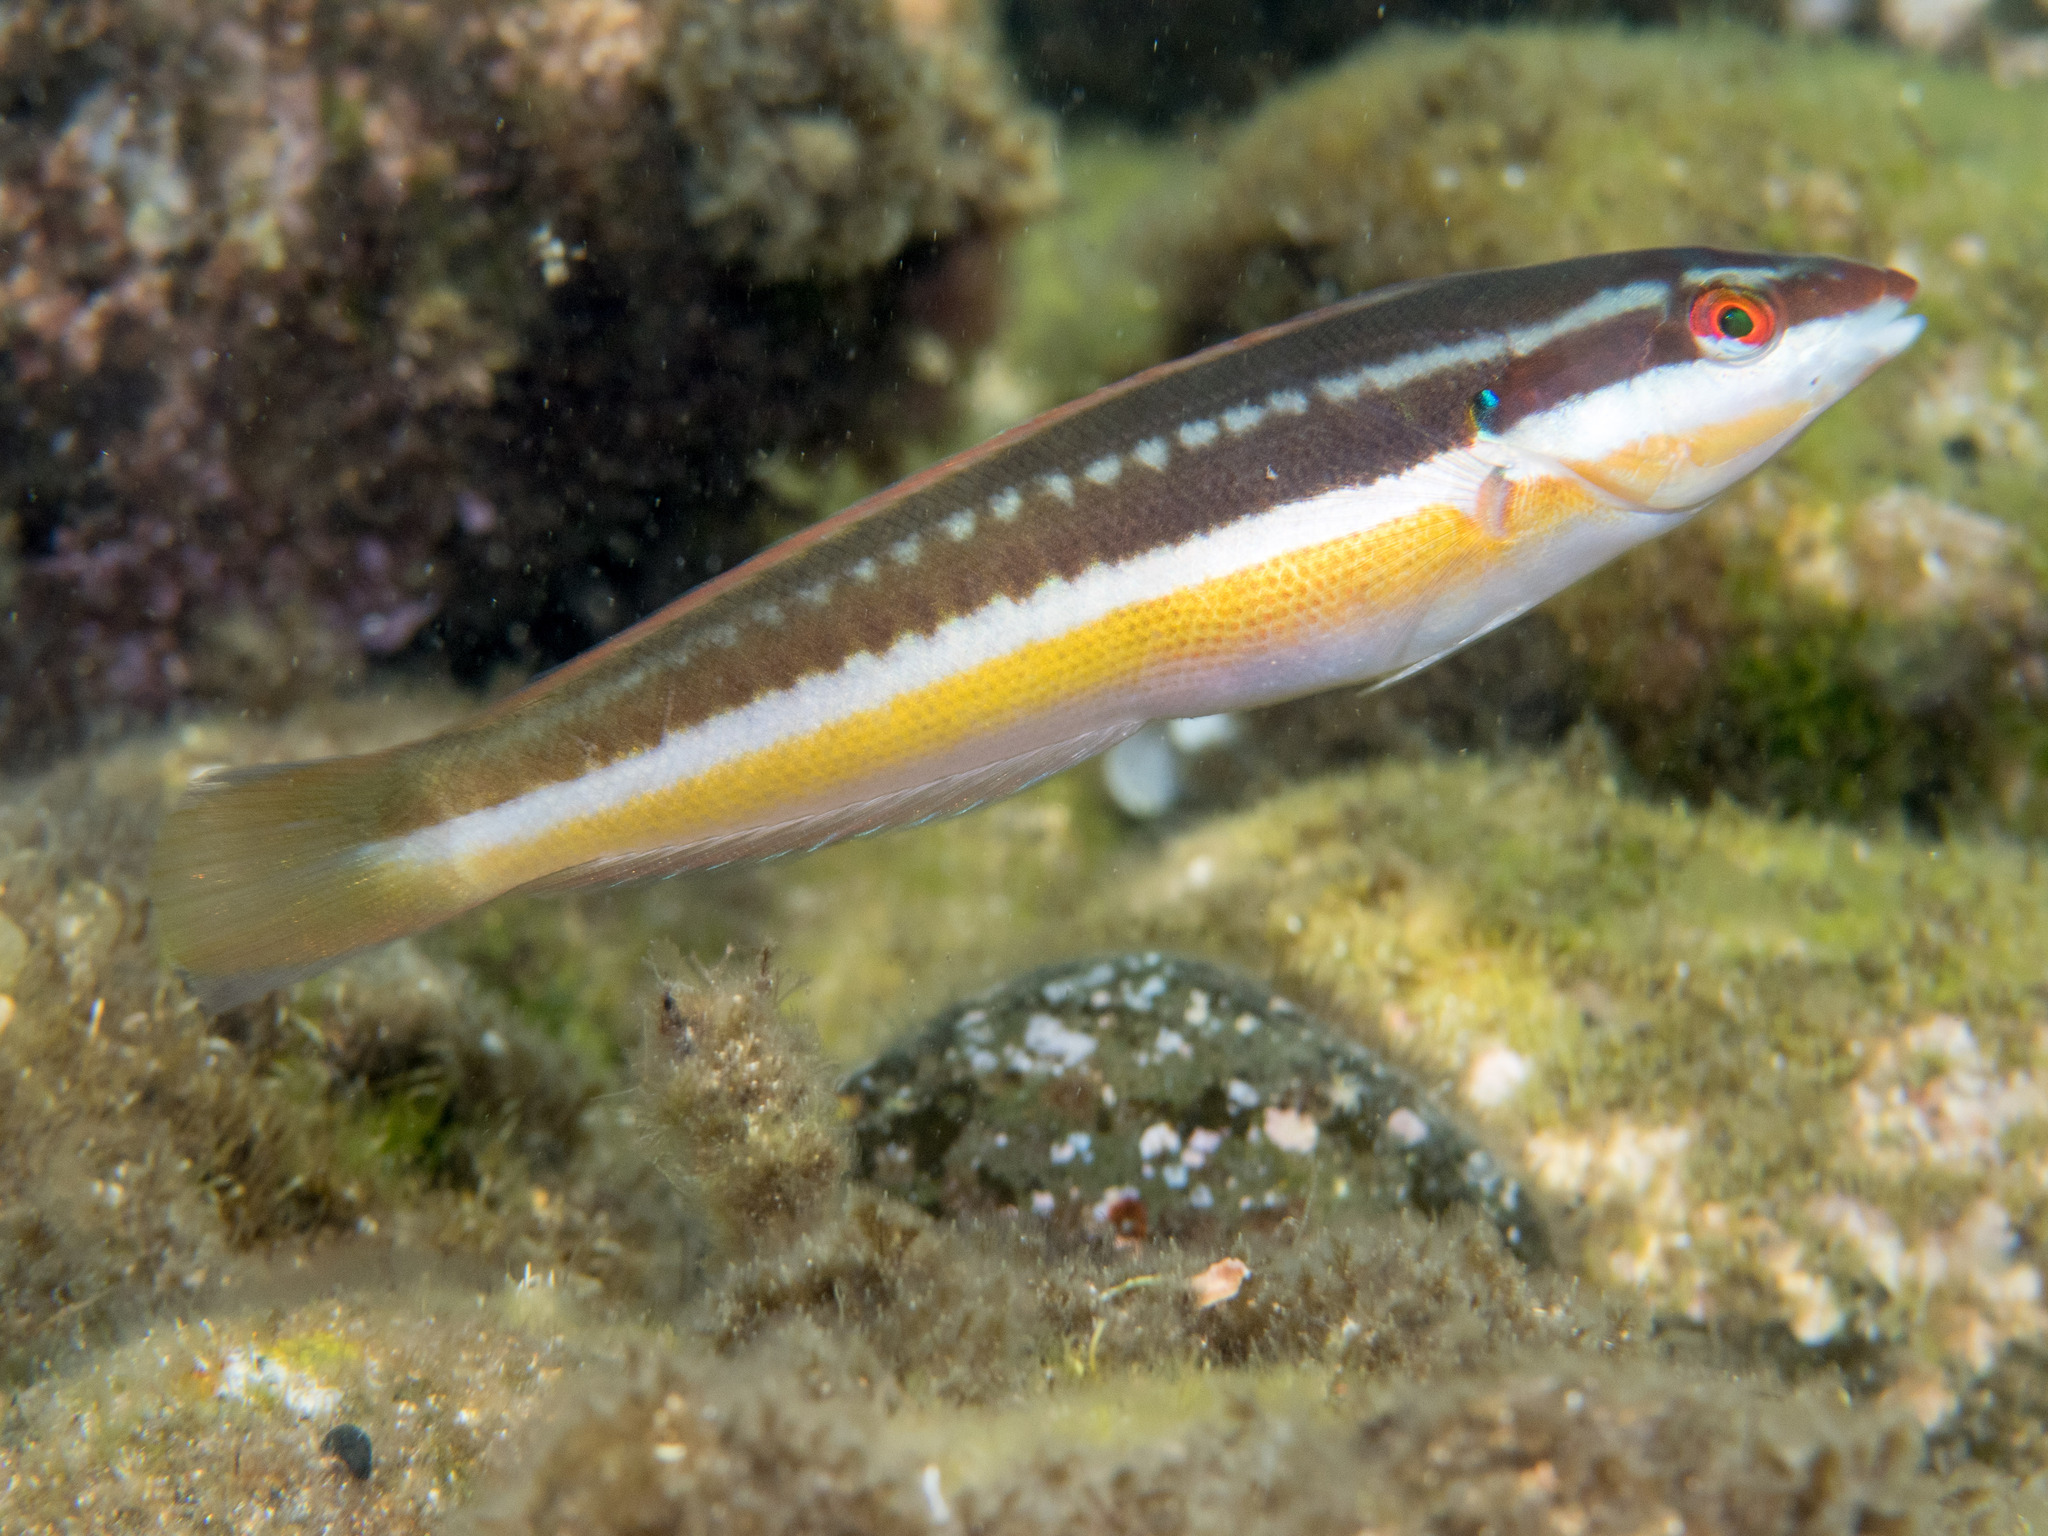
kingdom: Animalia
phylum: Chordata
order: Perciformes
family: Labridae
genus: Coris
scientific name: Coris julis
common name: Rainbow wrasse
